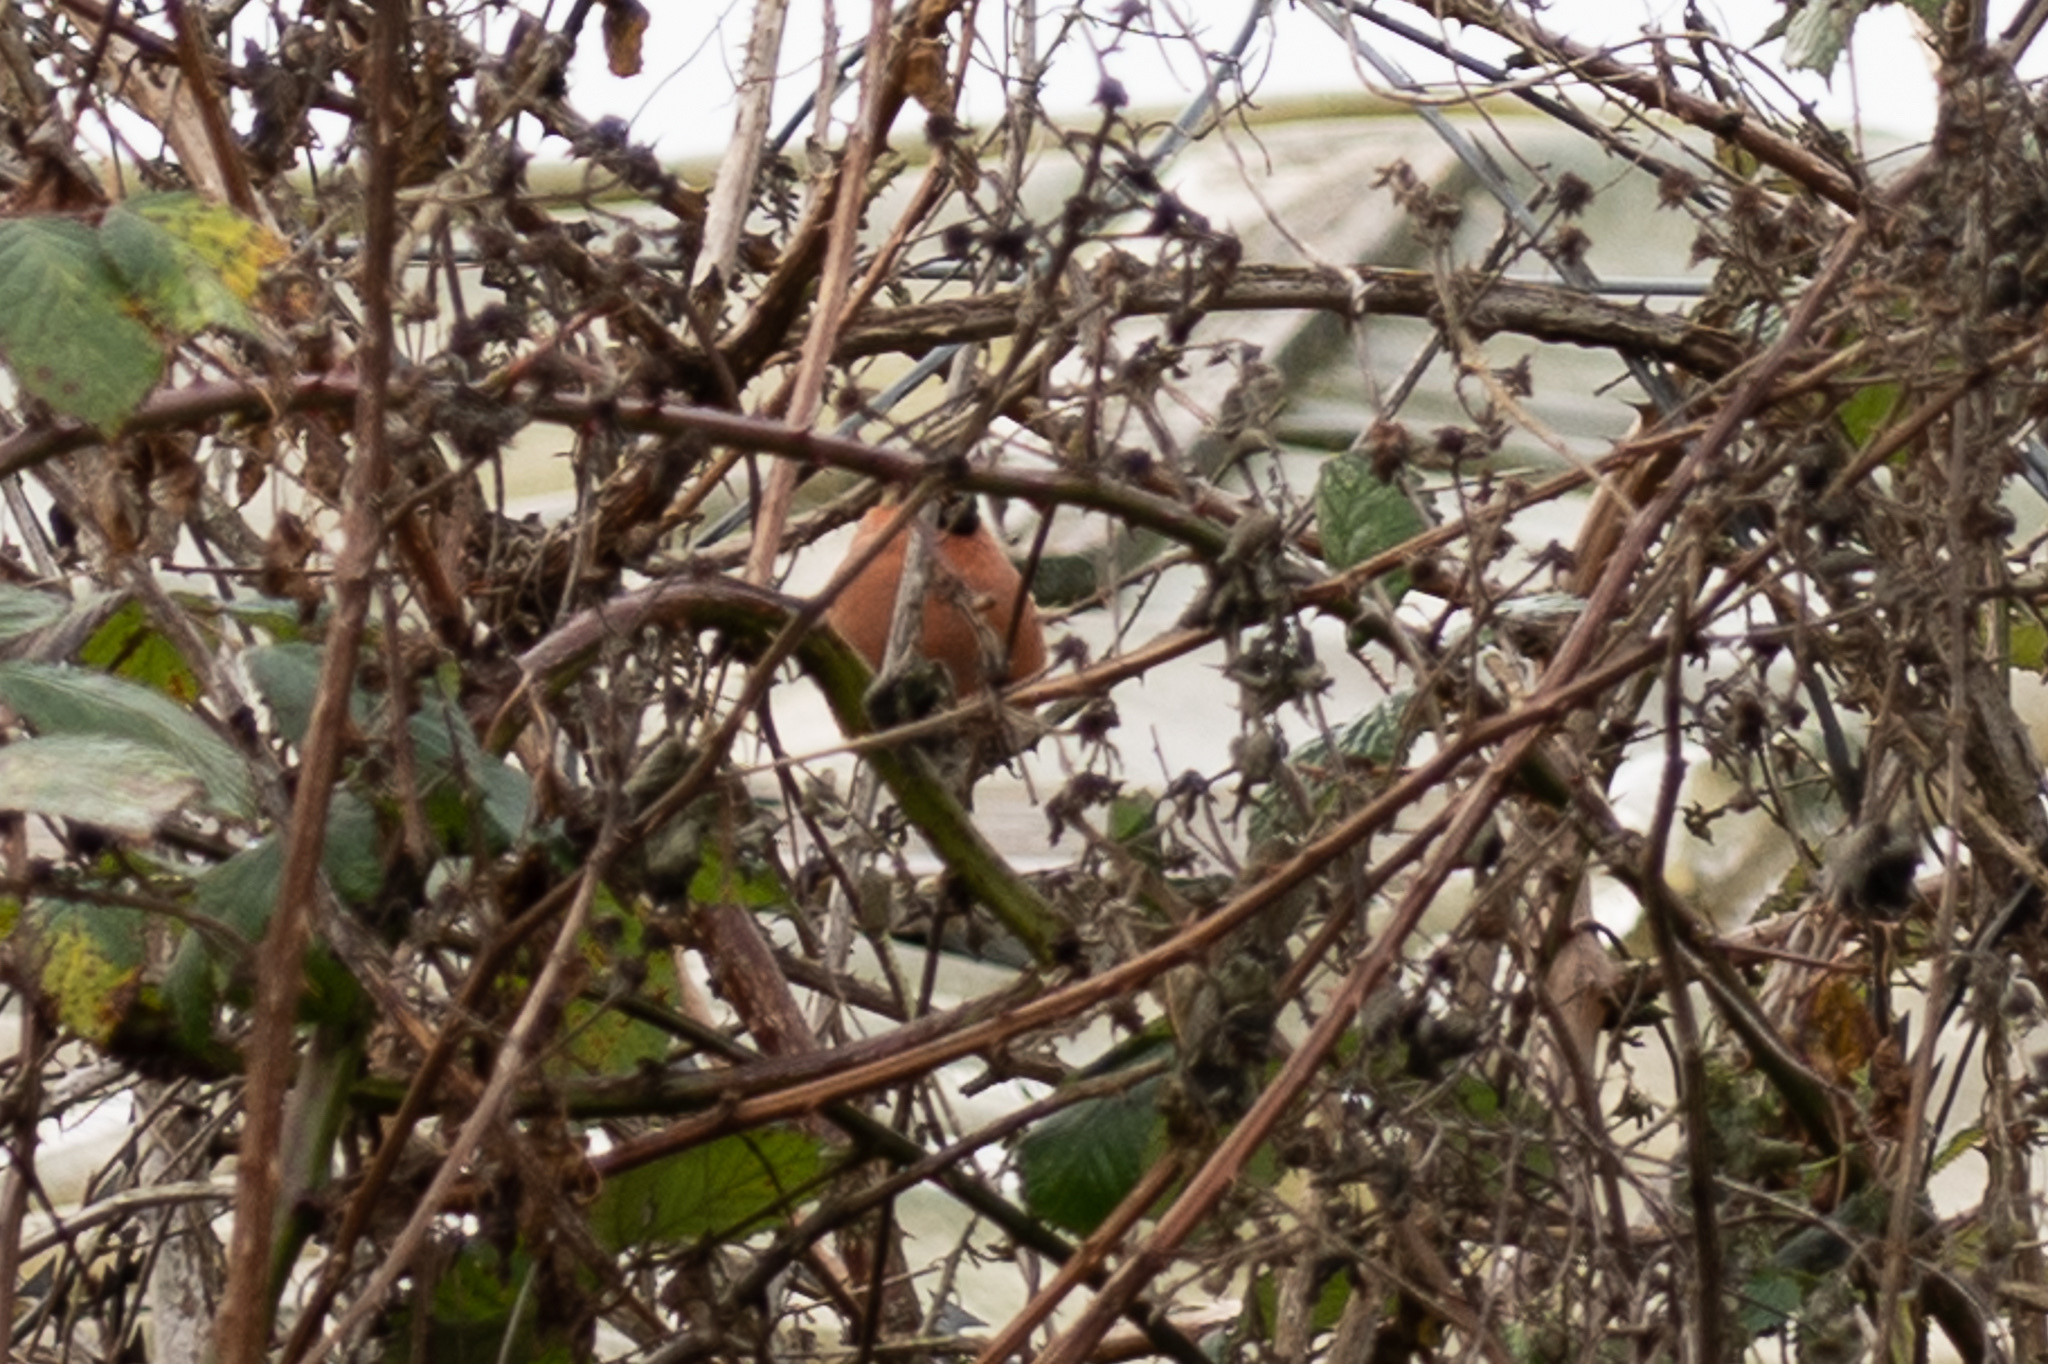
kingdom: Animalia
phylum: Chordata
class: Aves
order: Passeriformes
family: Fringillidae
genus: Pyrrhula
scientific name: Pyrrhula pyrrhula
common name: Eurasian bullfinch
